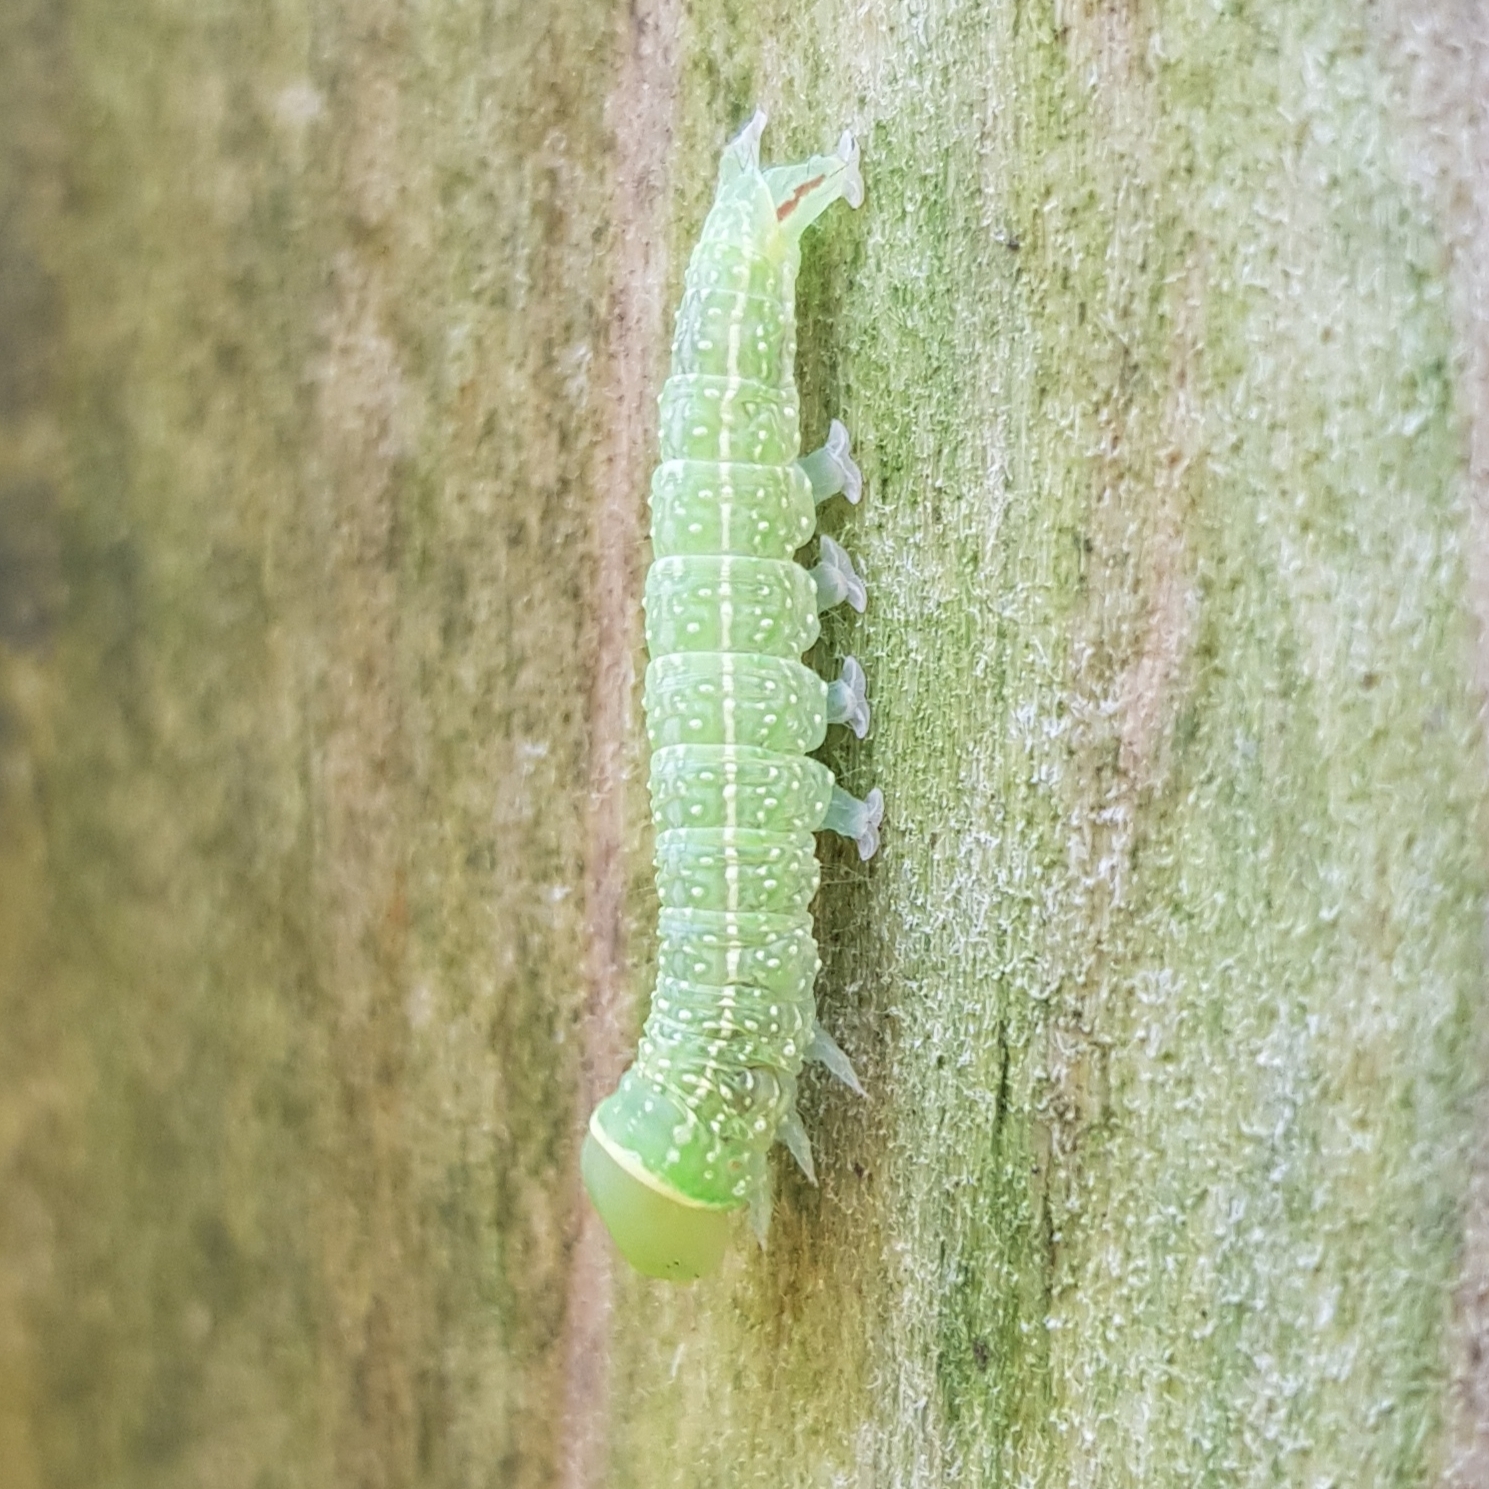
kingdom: Animalia
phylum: Arthropoda
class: Insecta
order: Lepidoptera
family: Nolidae
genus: Pseudoips
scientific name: Pseudoips prasinana
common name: Green silver-lines
